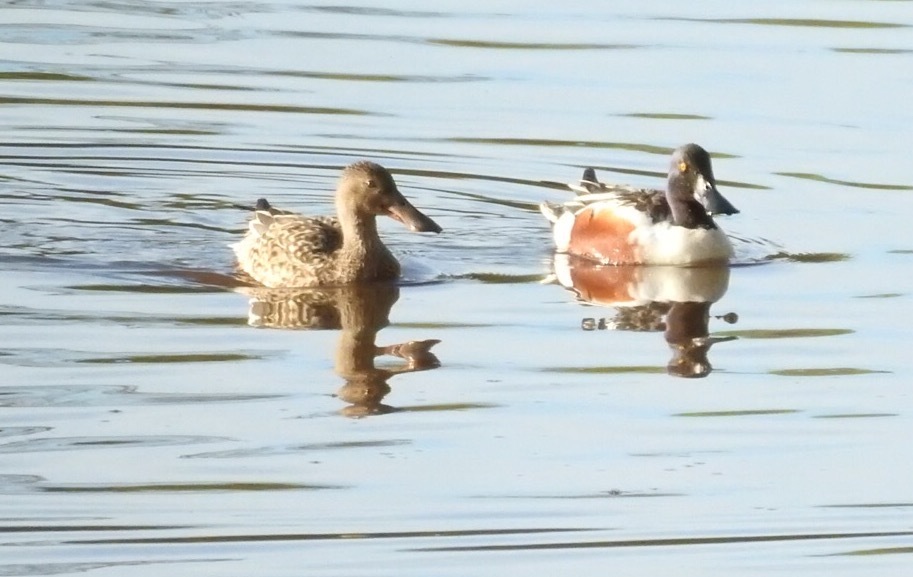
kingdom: Animalia
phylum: Chordata
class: Aves
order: Anseriformes
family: Anatidae
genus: Spatula
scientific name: Spatula clypeata
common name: Northern shoveler
